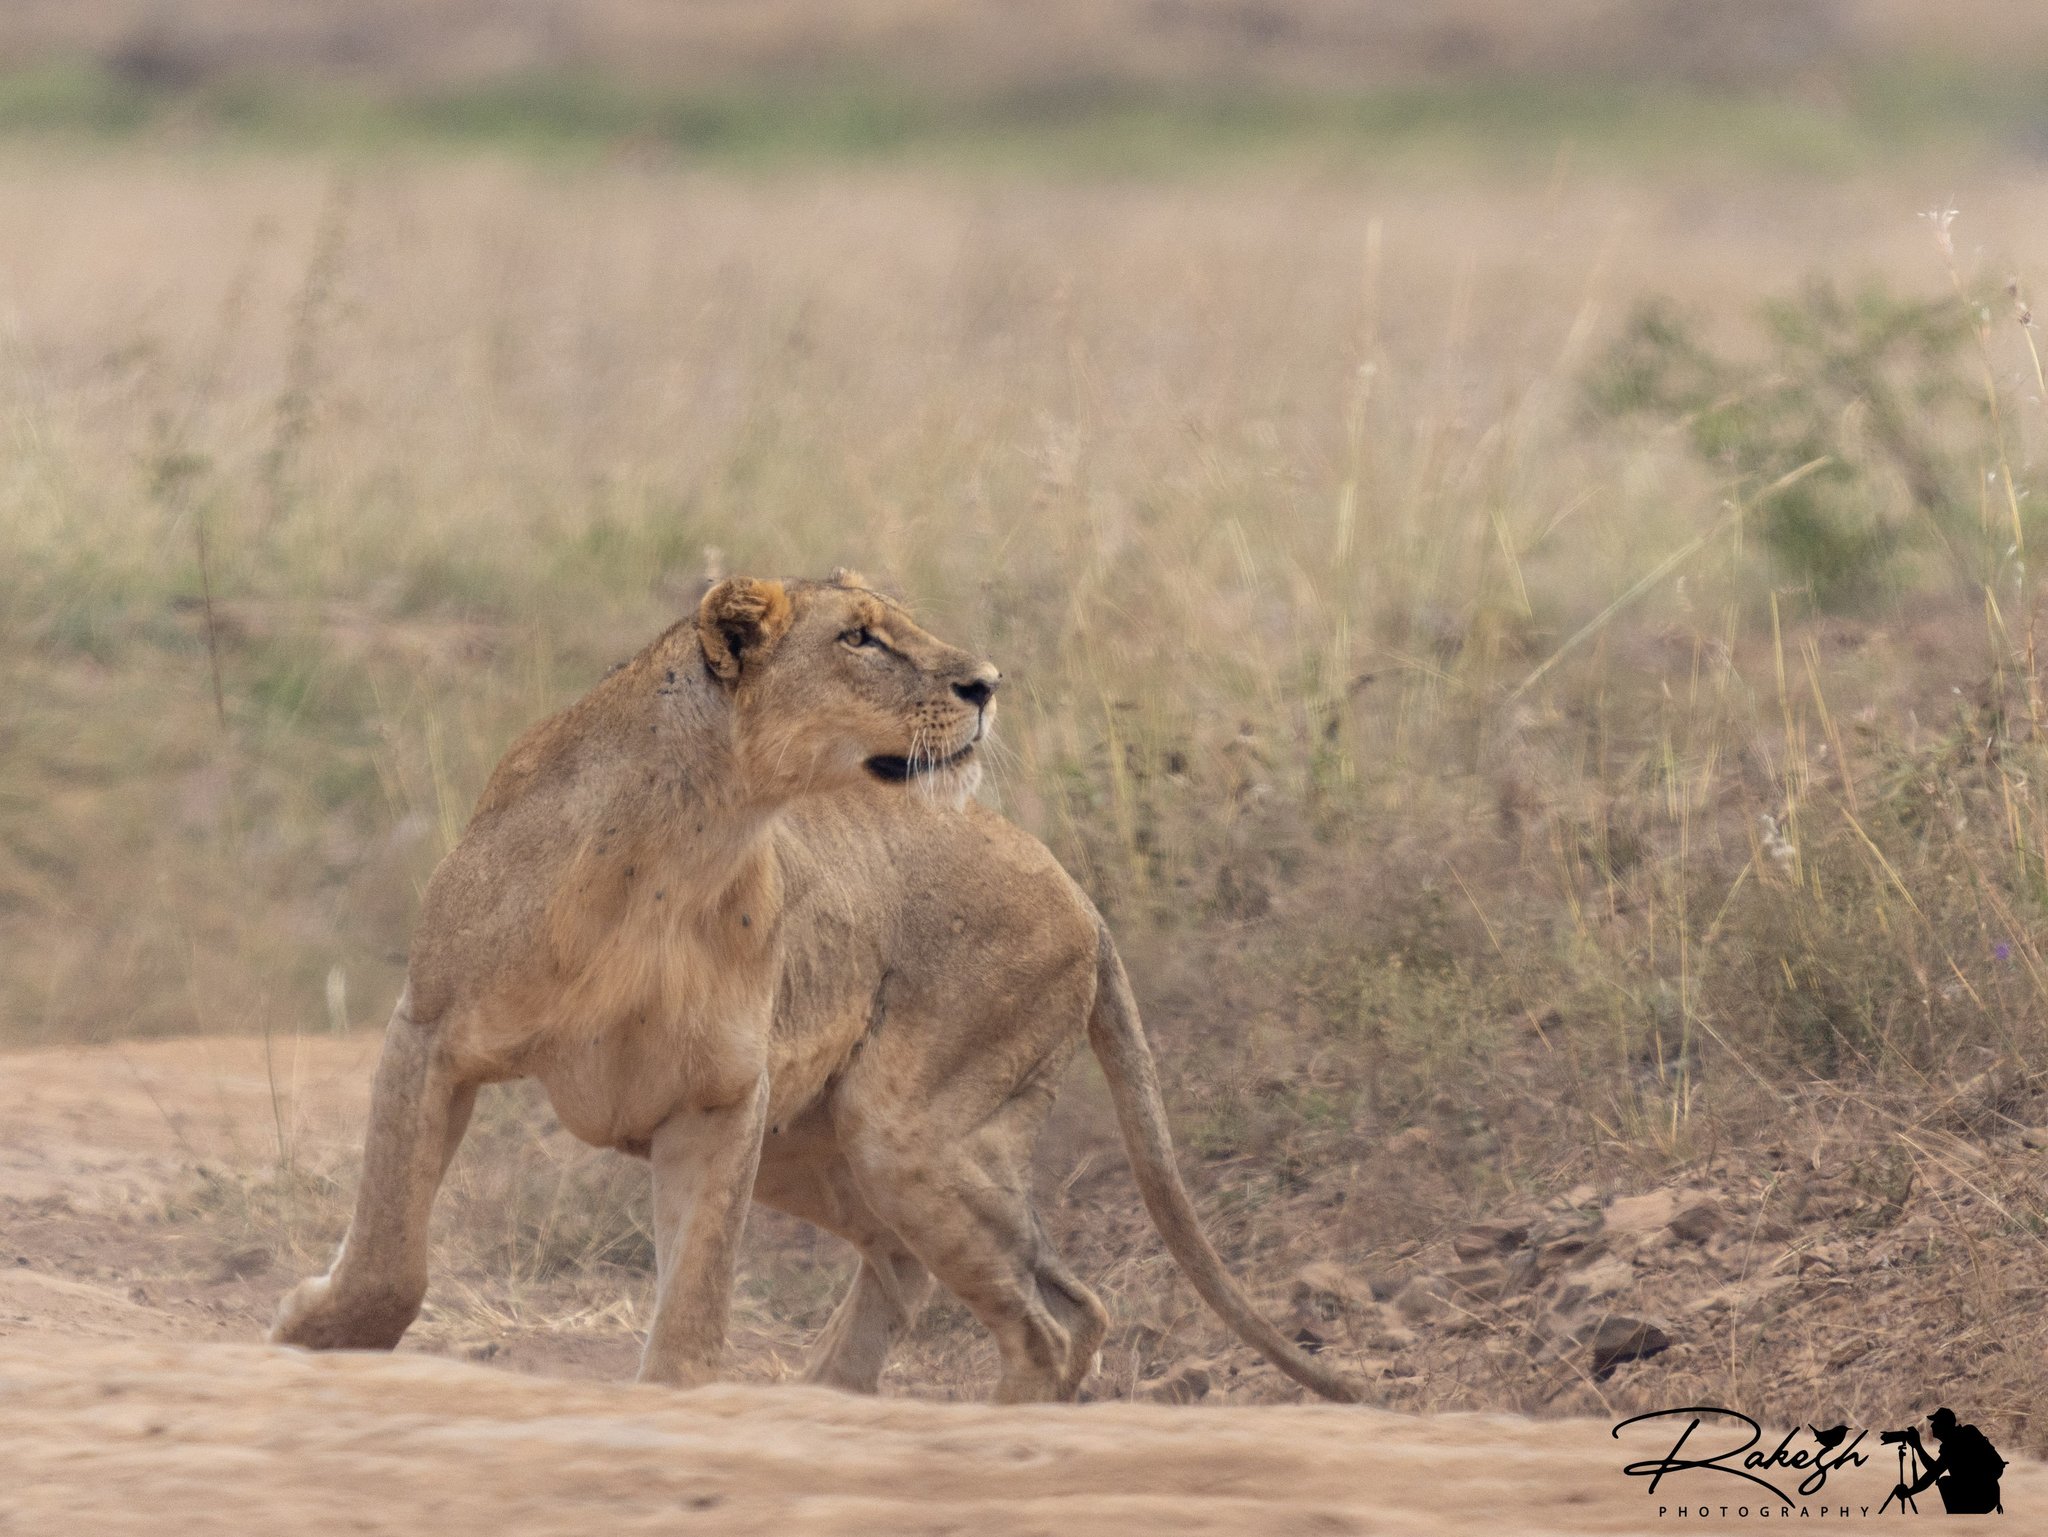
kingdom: Animalia
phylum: Chordata
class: Mammalia
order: Carnivora
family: Felidae
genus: Panthera
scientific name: Panthera leo
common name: Lion
